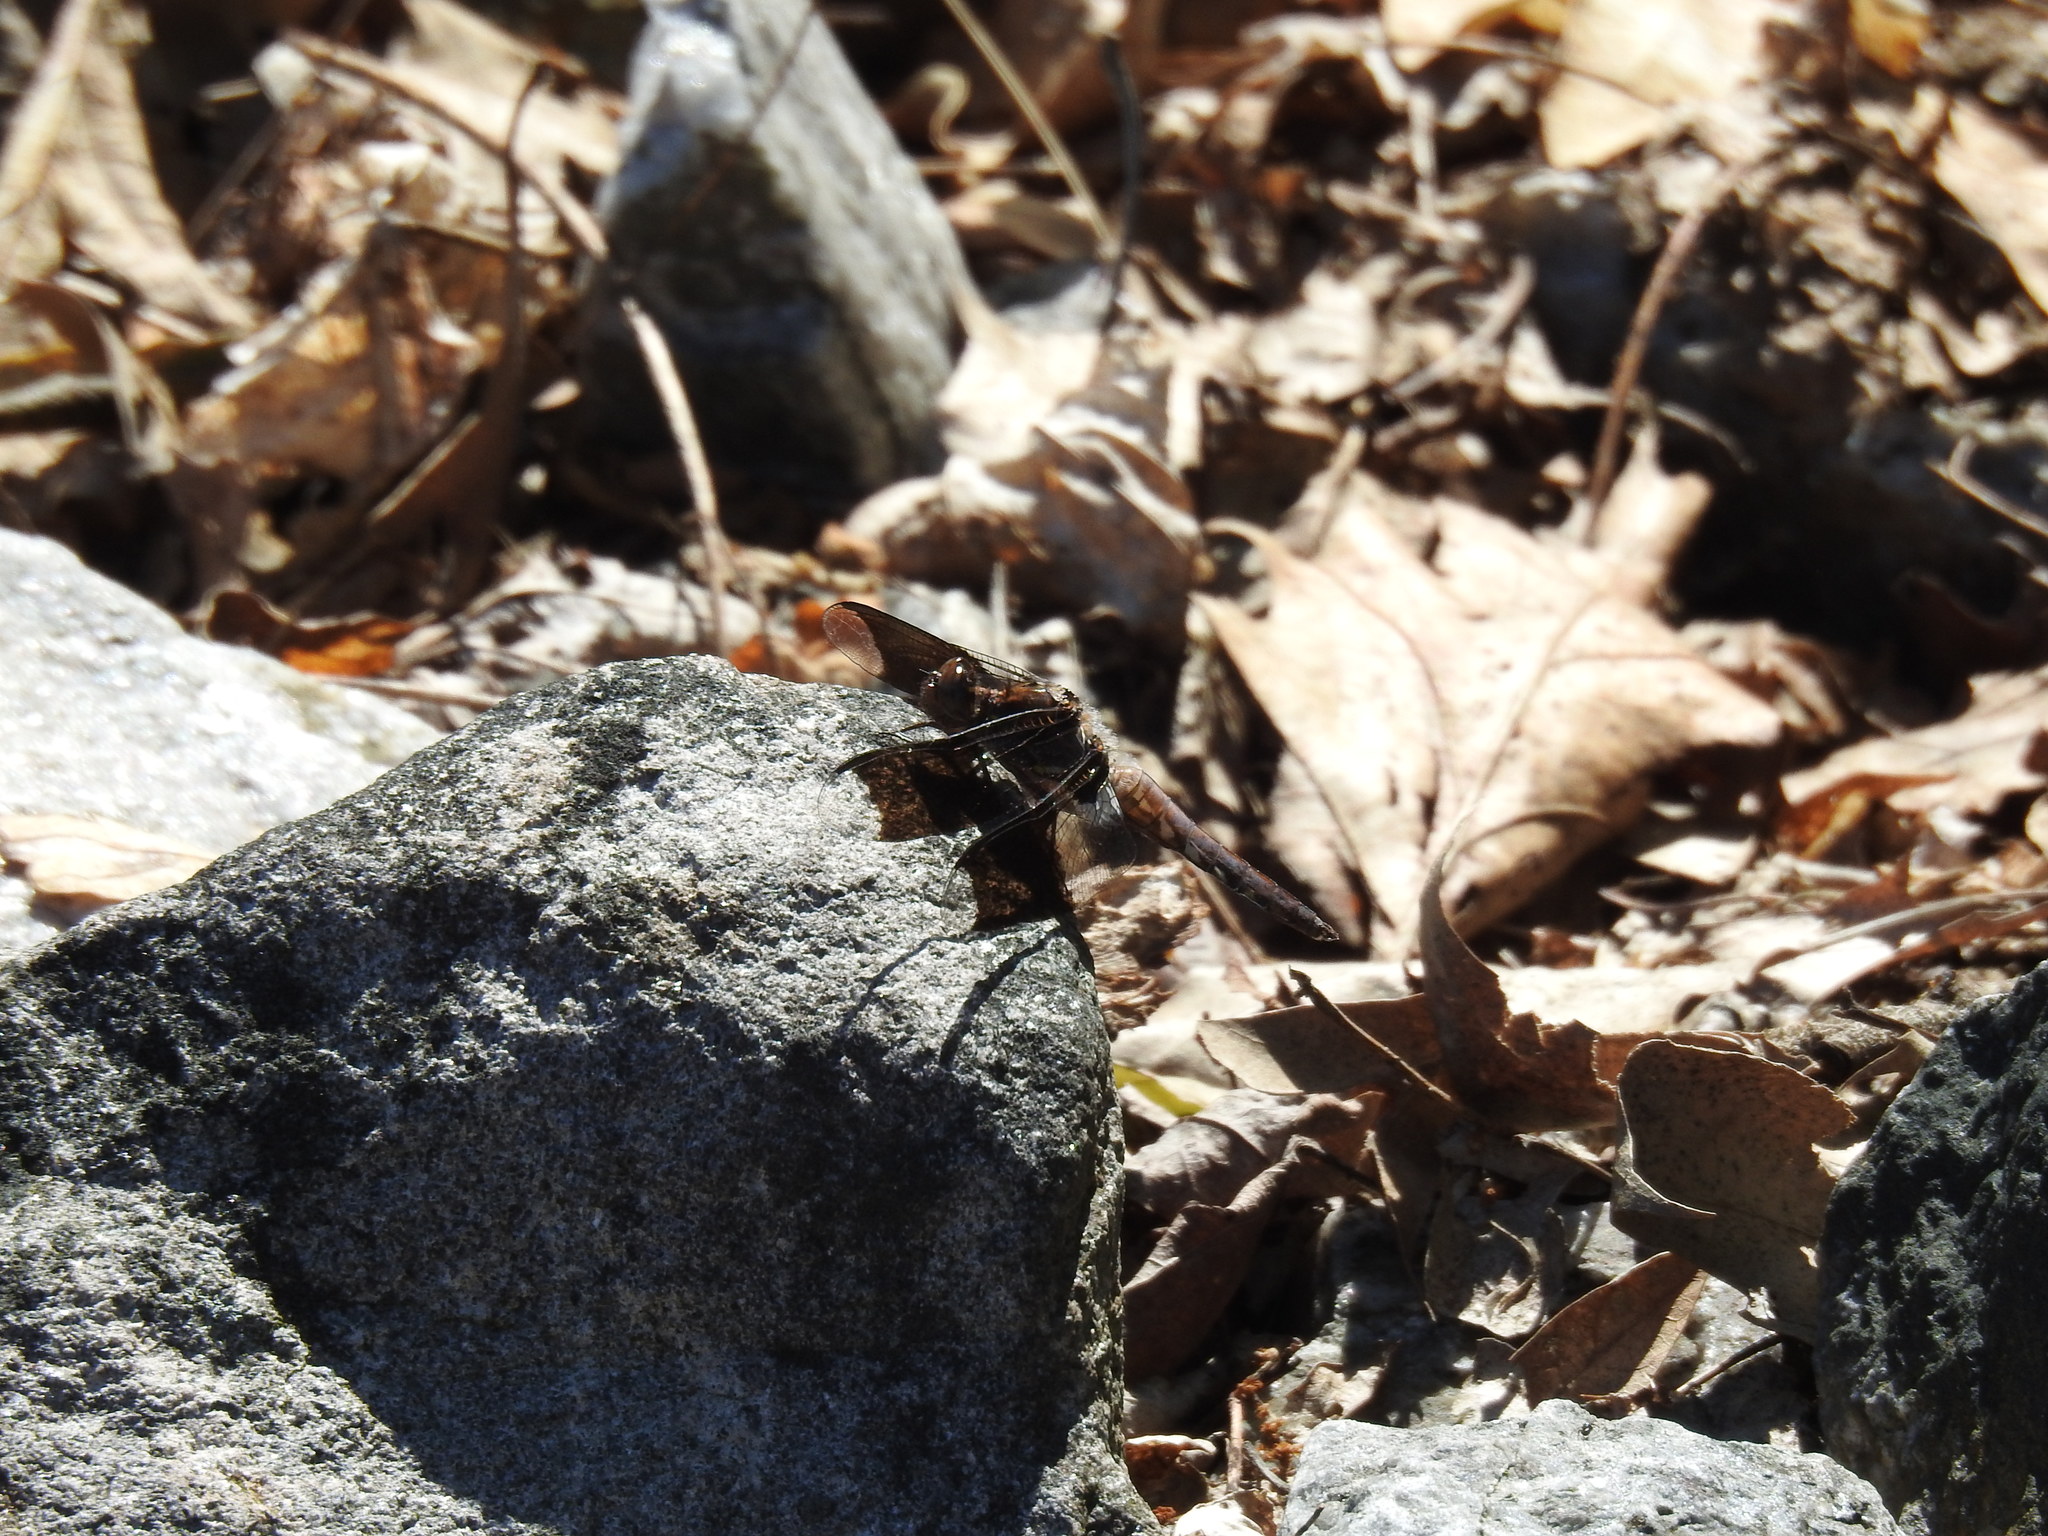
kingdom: Animalia
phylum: Arthropoda
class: Insecta
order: Odonata
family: Libellulidae
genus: Plathemis
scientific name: Plathemis lydia
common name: Common whitetail
